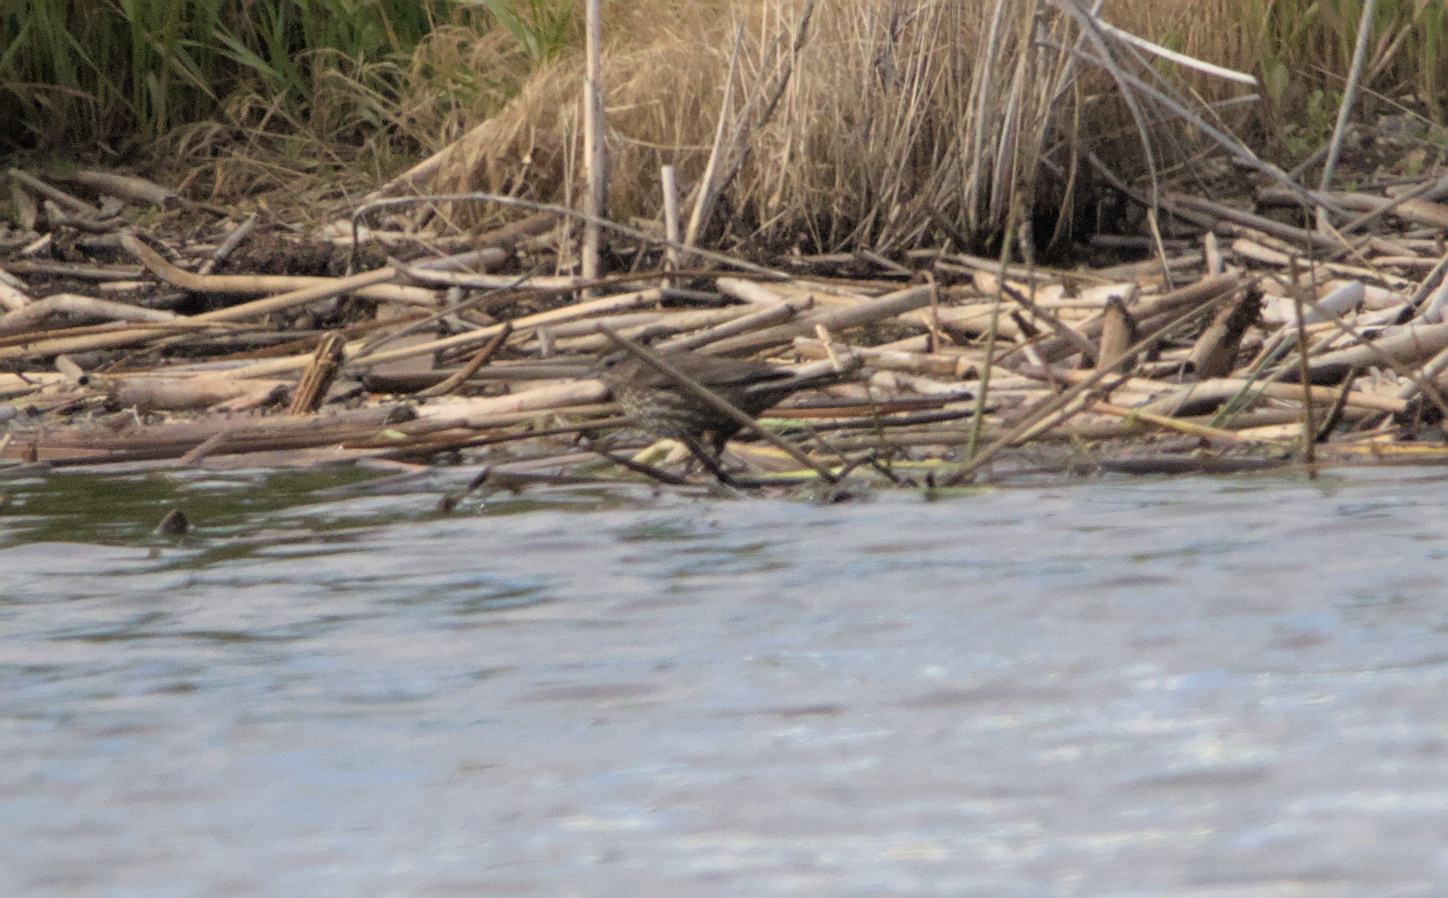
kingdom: Animalia
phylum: Chordata
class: Aves
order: Passeriformes
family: Icteridae
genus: Agelaius
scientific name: Agelaius phoeniceus
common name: Red-winged blackbird
